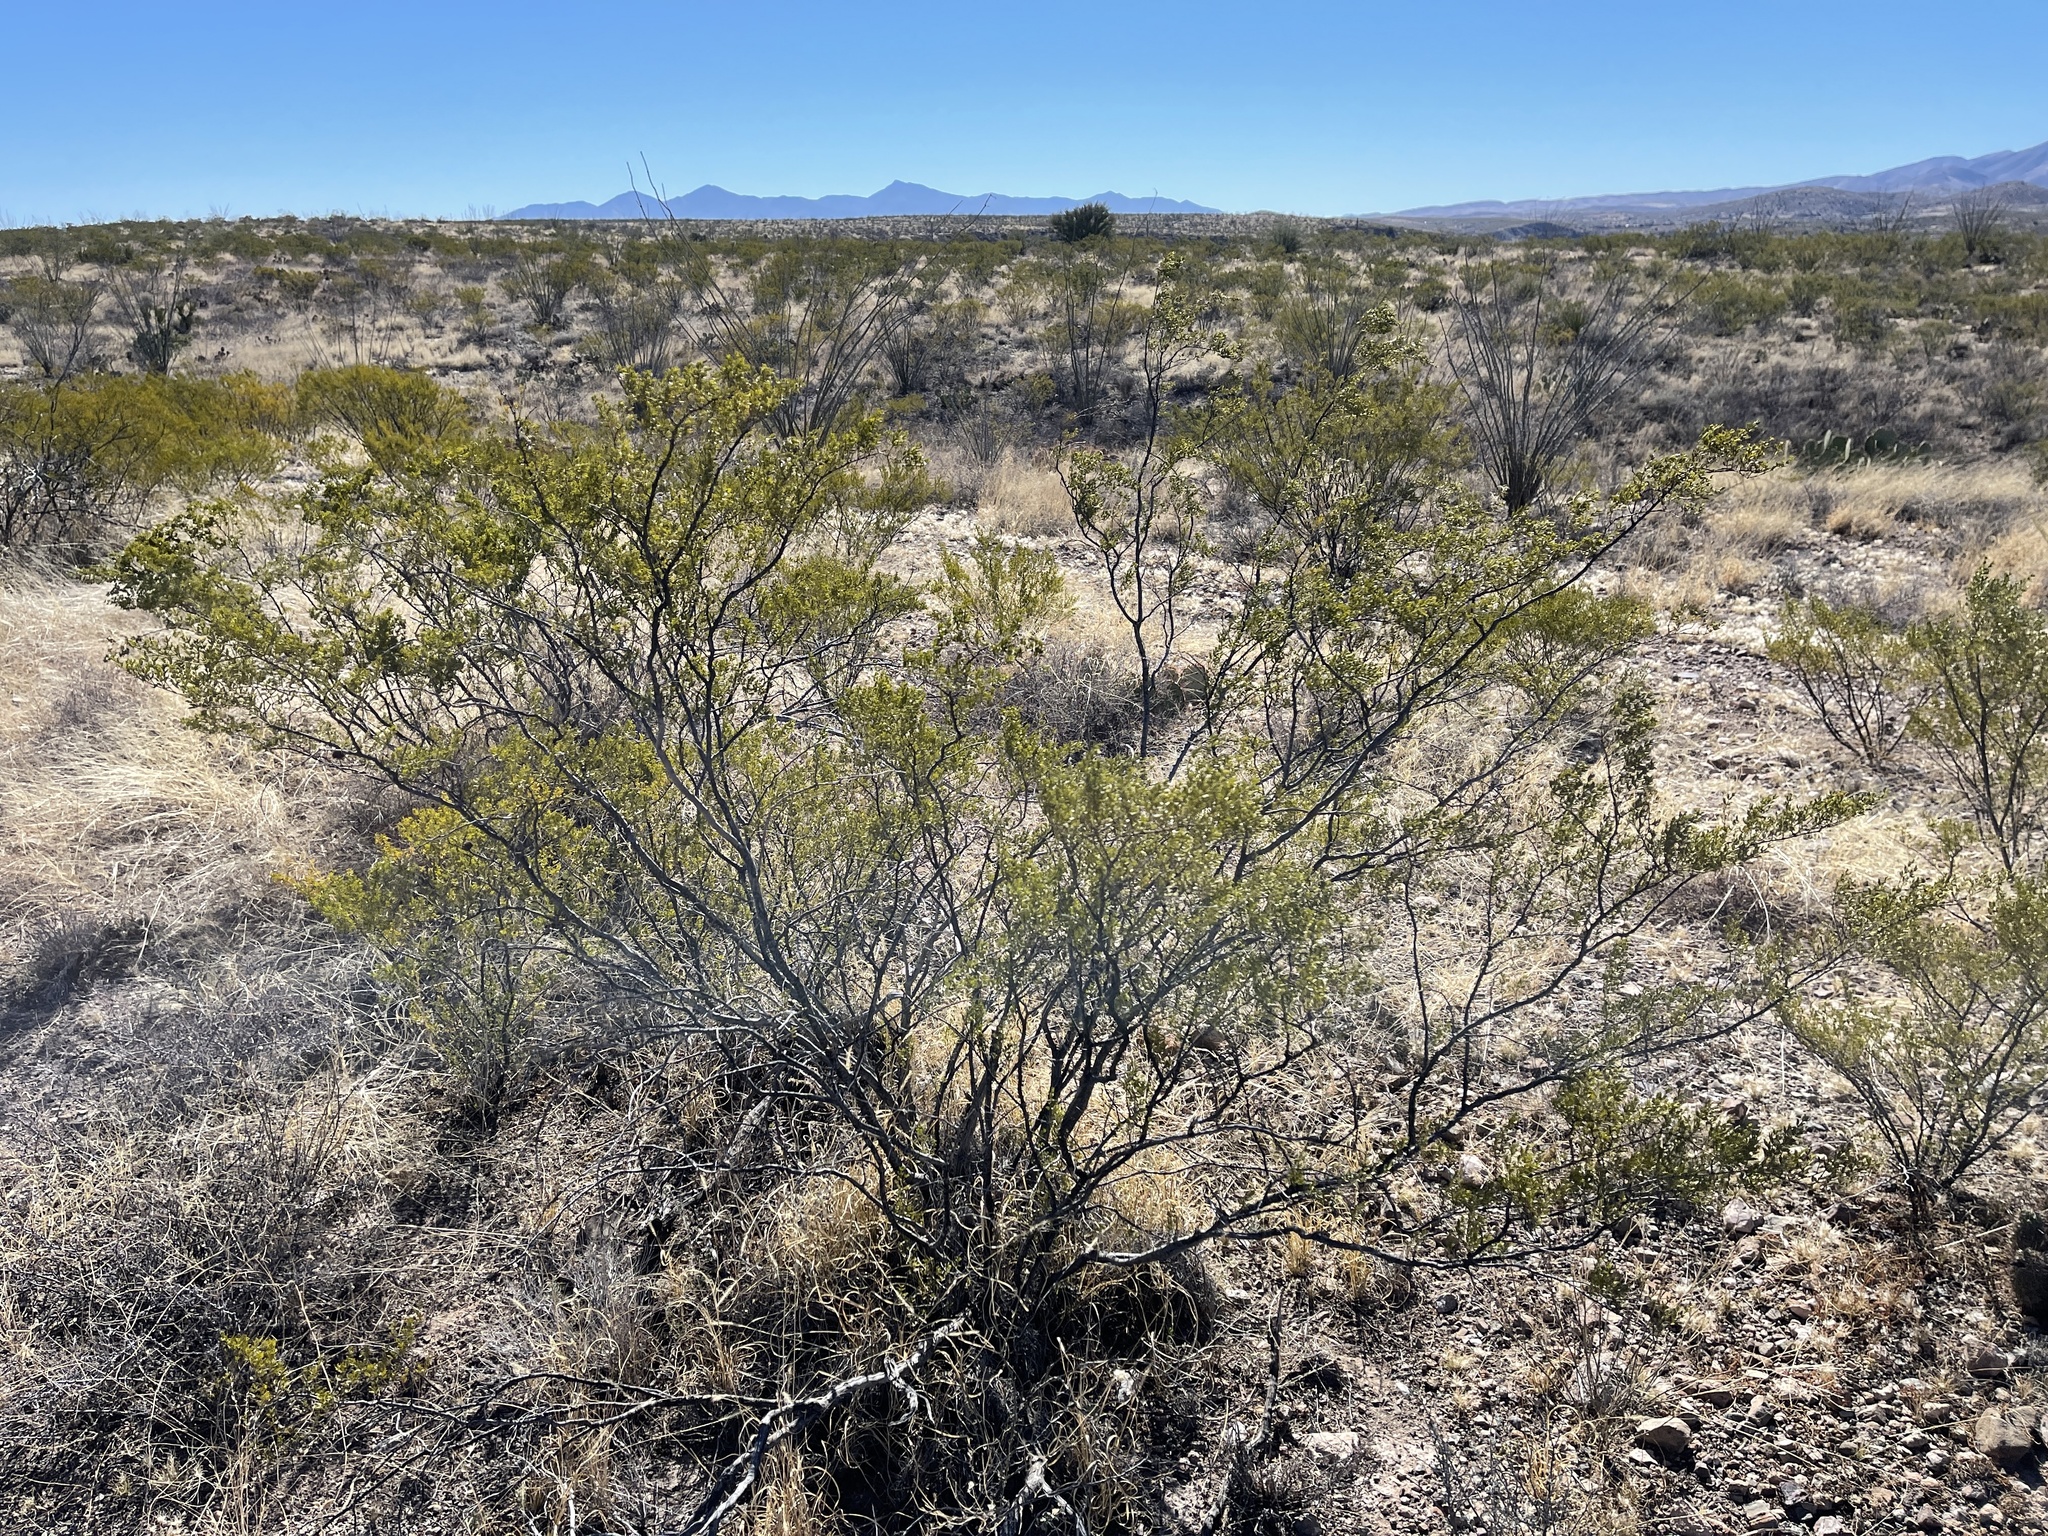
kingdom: Plantae
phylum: Tracheophyta
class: Magnoliopsida
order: Zygophyllales
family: Zygophyllaceae
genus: Larrea
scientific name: Larrea tridentata
